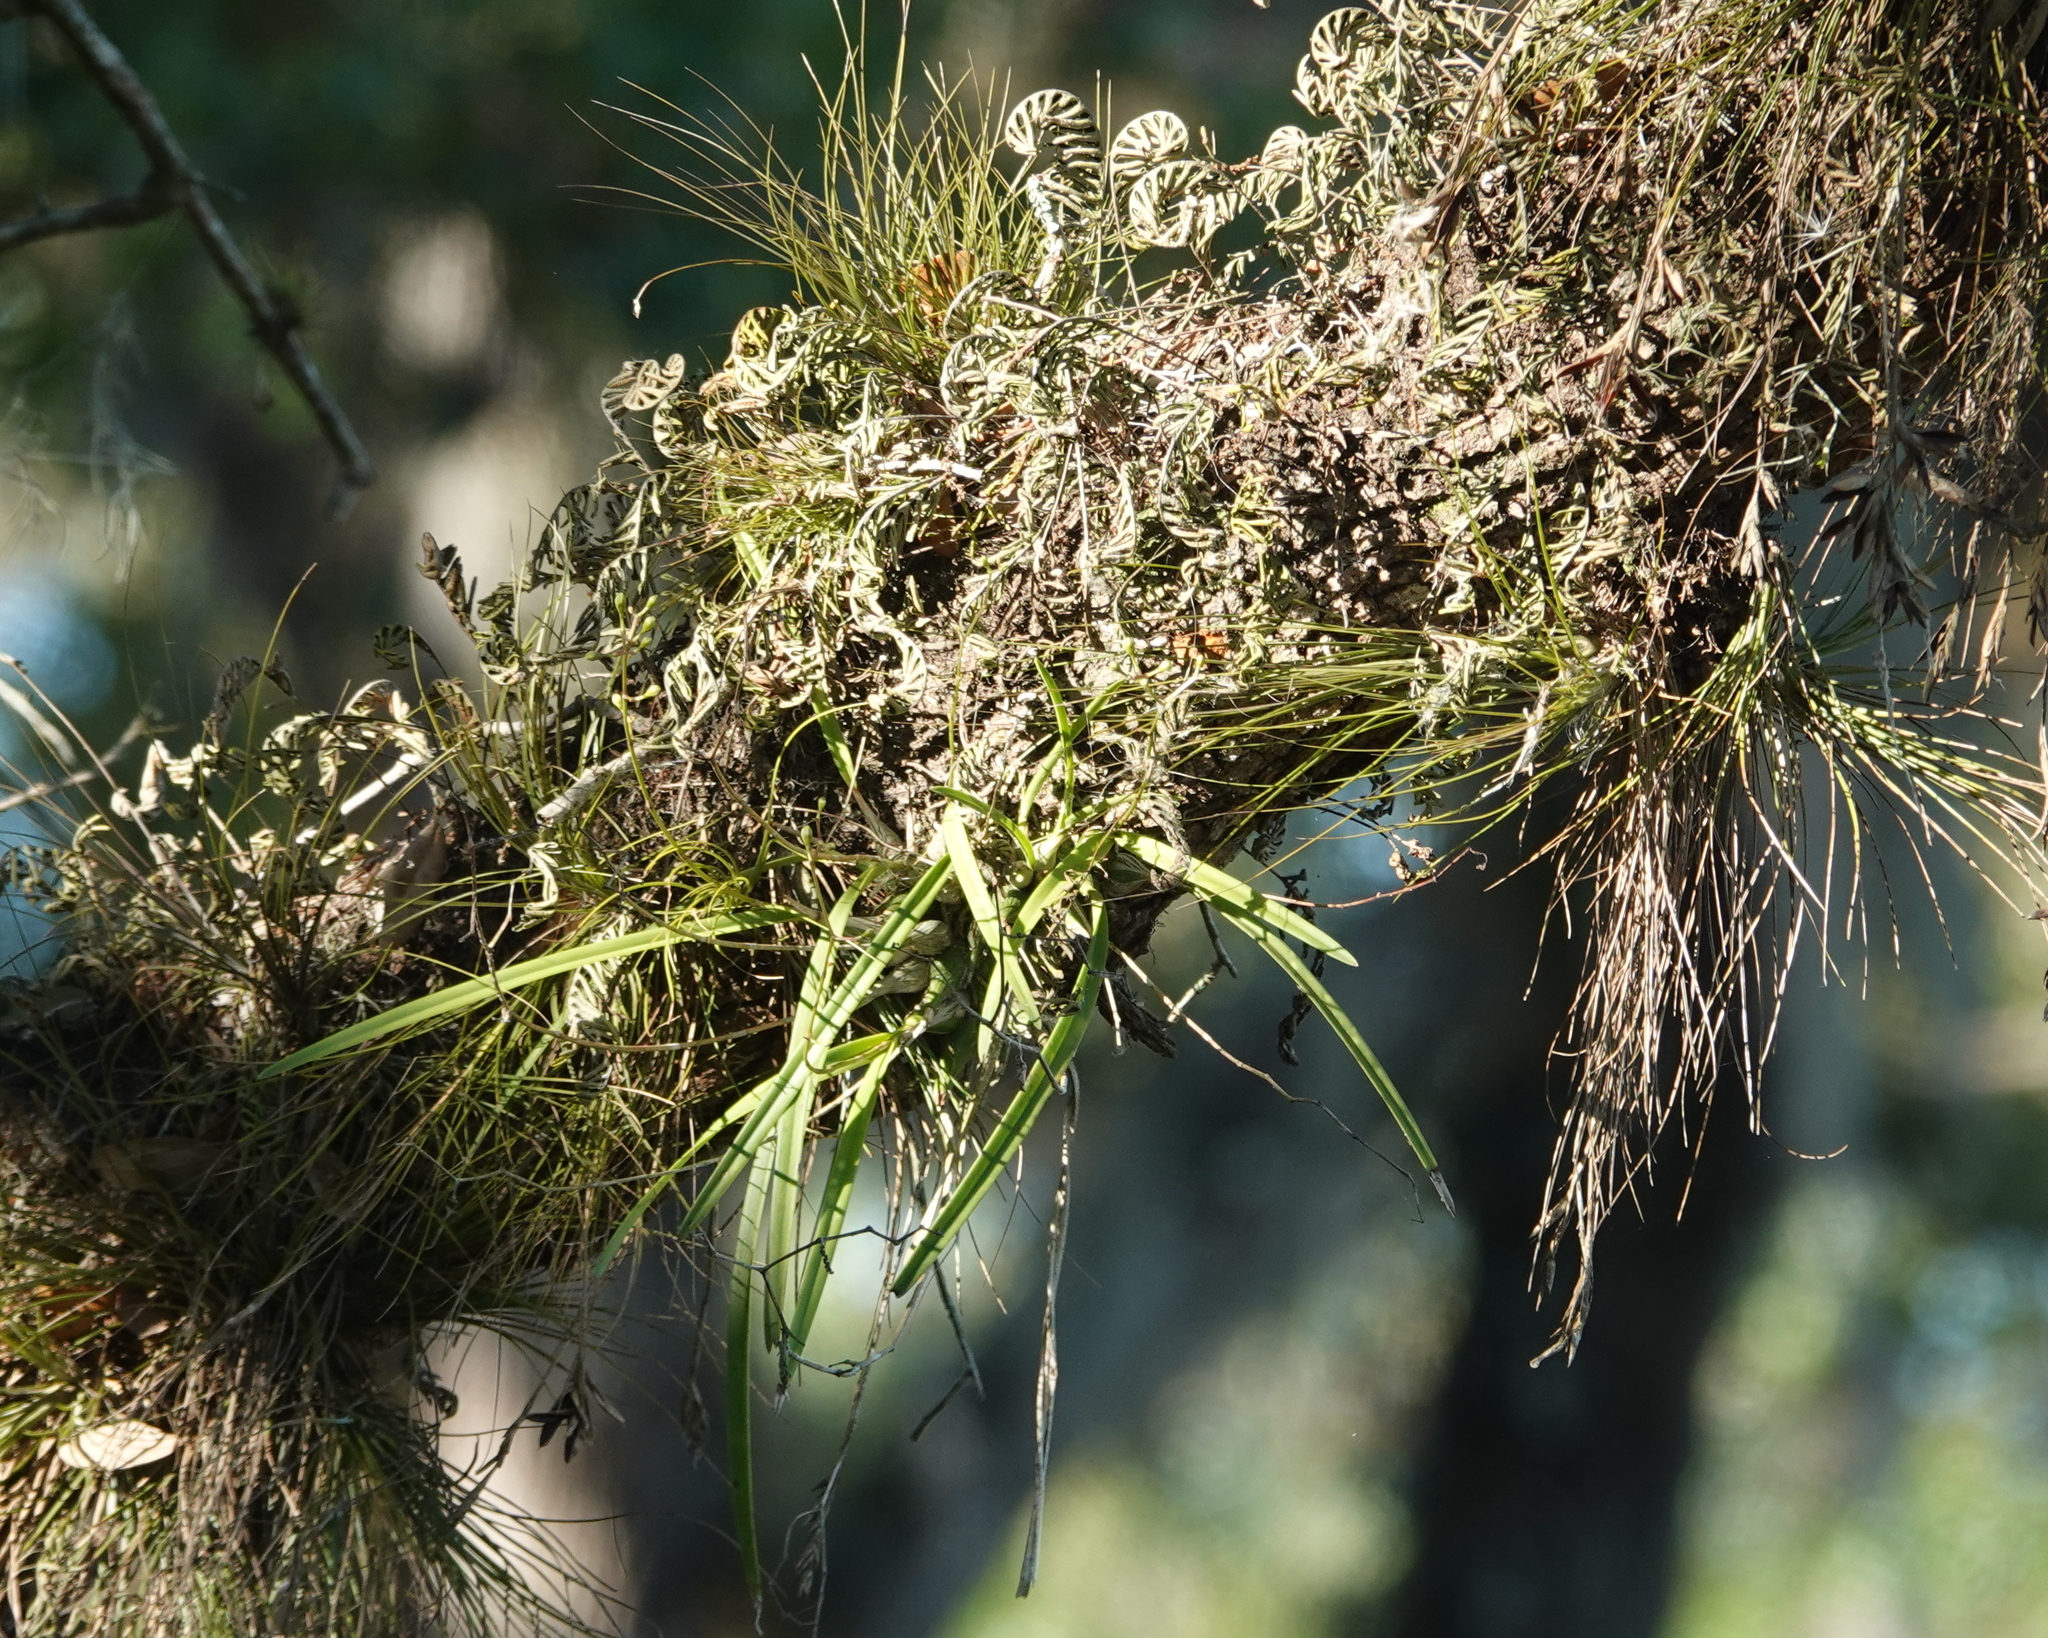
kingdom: Plantae
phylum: Tracheophyta
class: Liliopsida
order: Asparagales
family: Orchidaceae
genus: Encyclia
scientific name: Encyclia tampensis
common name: Florida butterfly orchid
